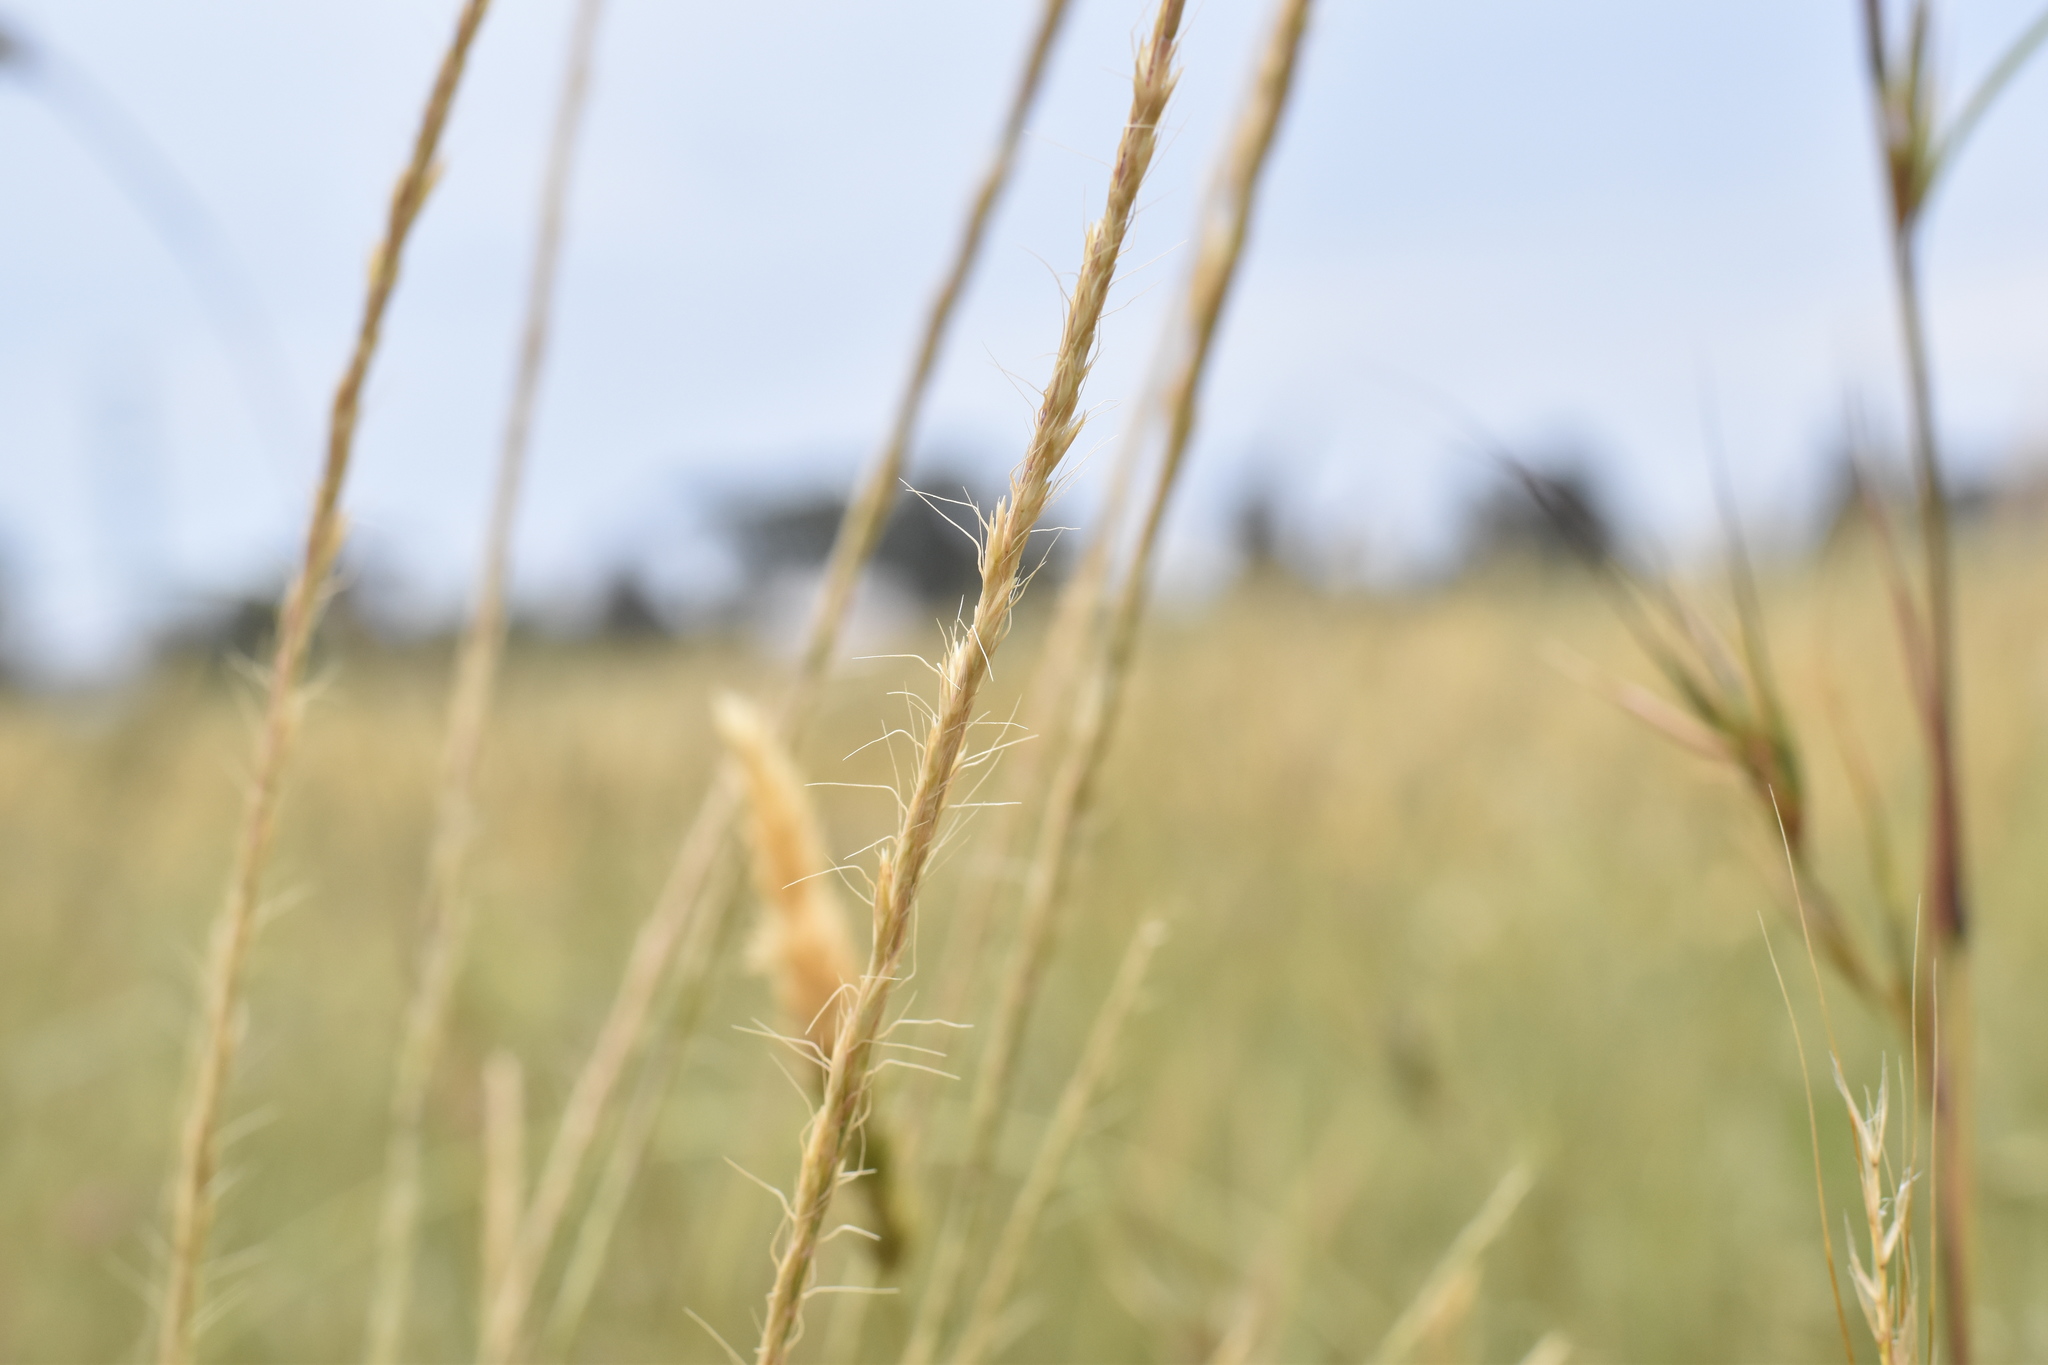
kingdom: Plantae
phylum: Tracheophyta
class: Liliopsida
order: Poales
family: Poaceae
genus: Gaudinia
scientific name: Gaudinia fragilis
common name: French oat-grass
